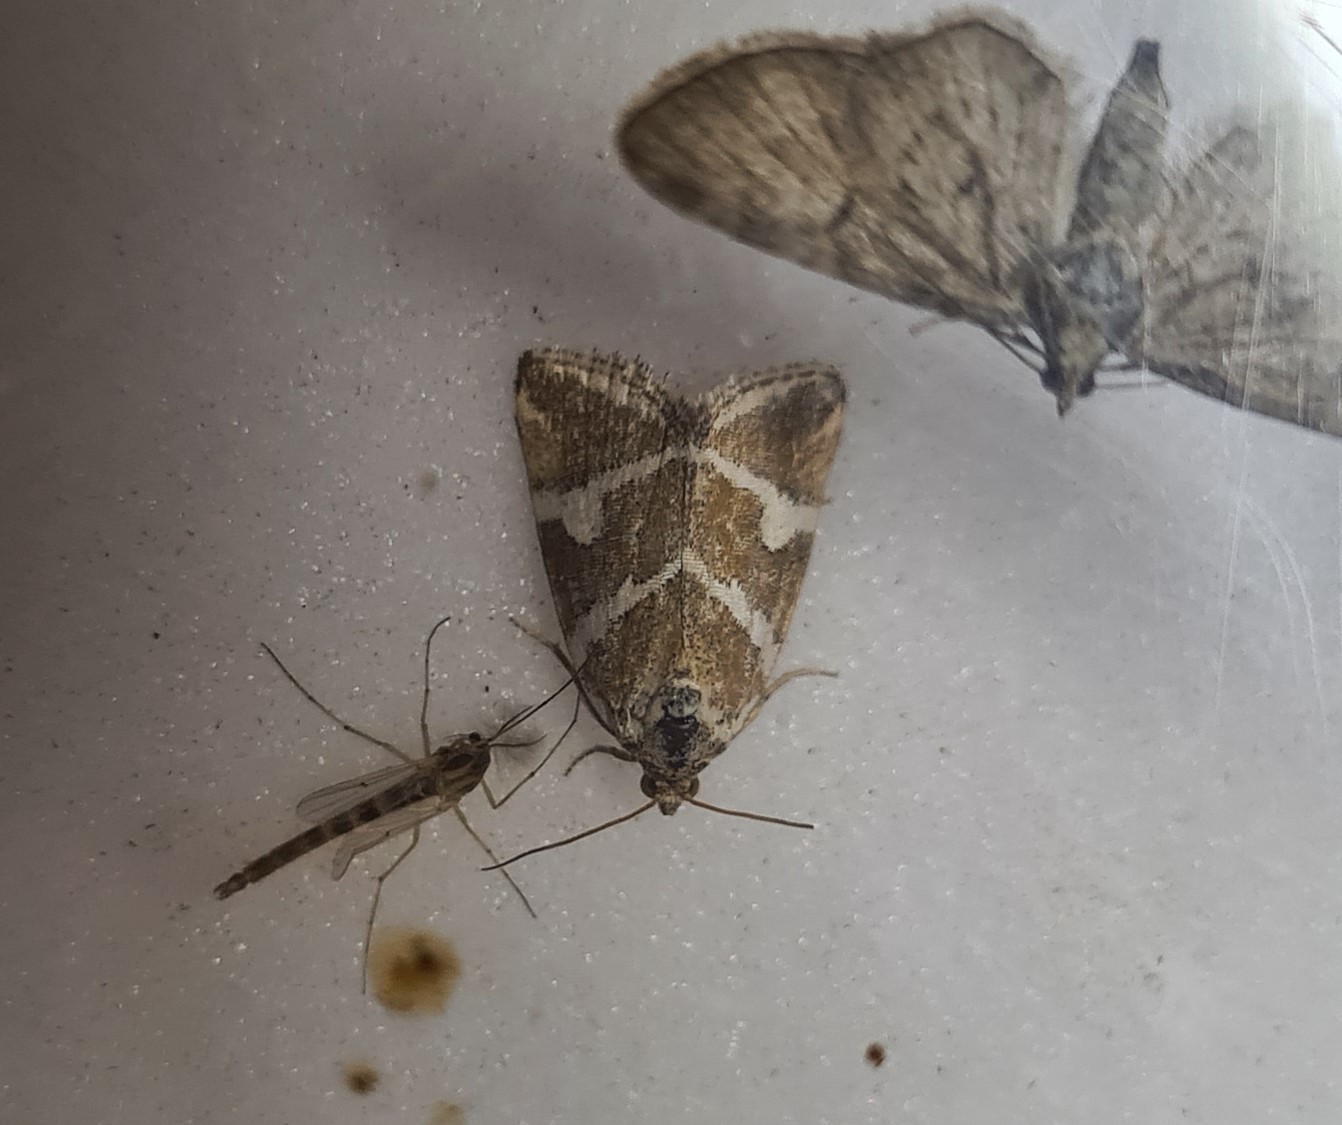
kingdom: Animalia
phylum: Arthropoda
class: Insecta
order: Lepidoptera
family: Noctuidae
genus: Deltote
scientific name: Deltote bankiana
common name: Silver barred
